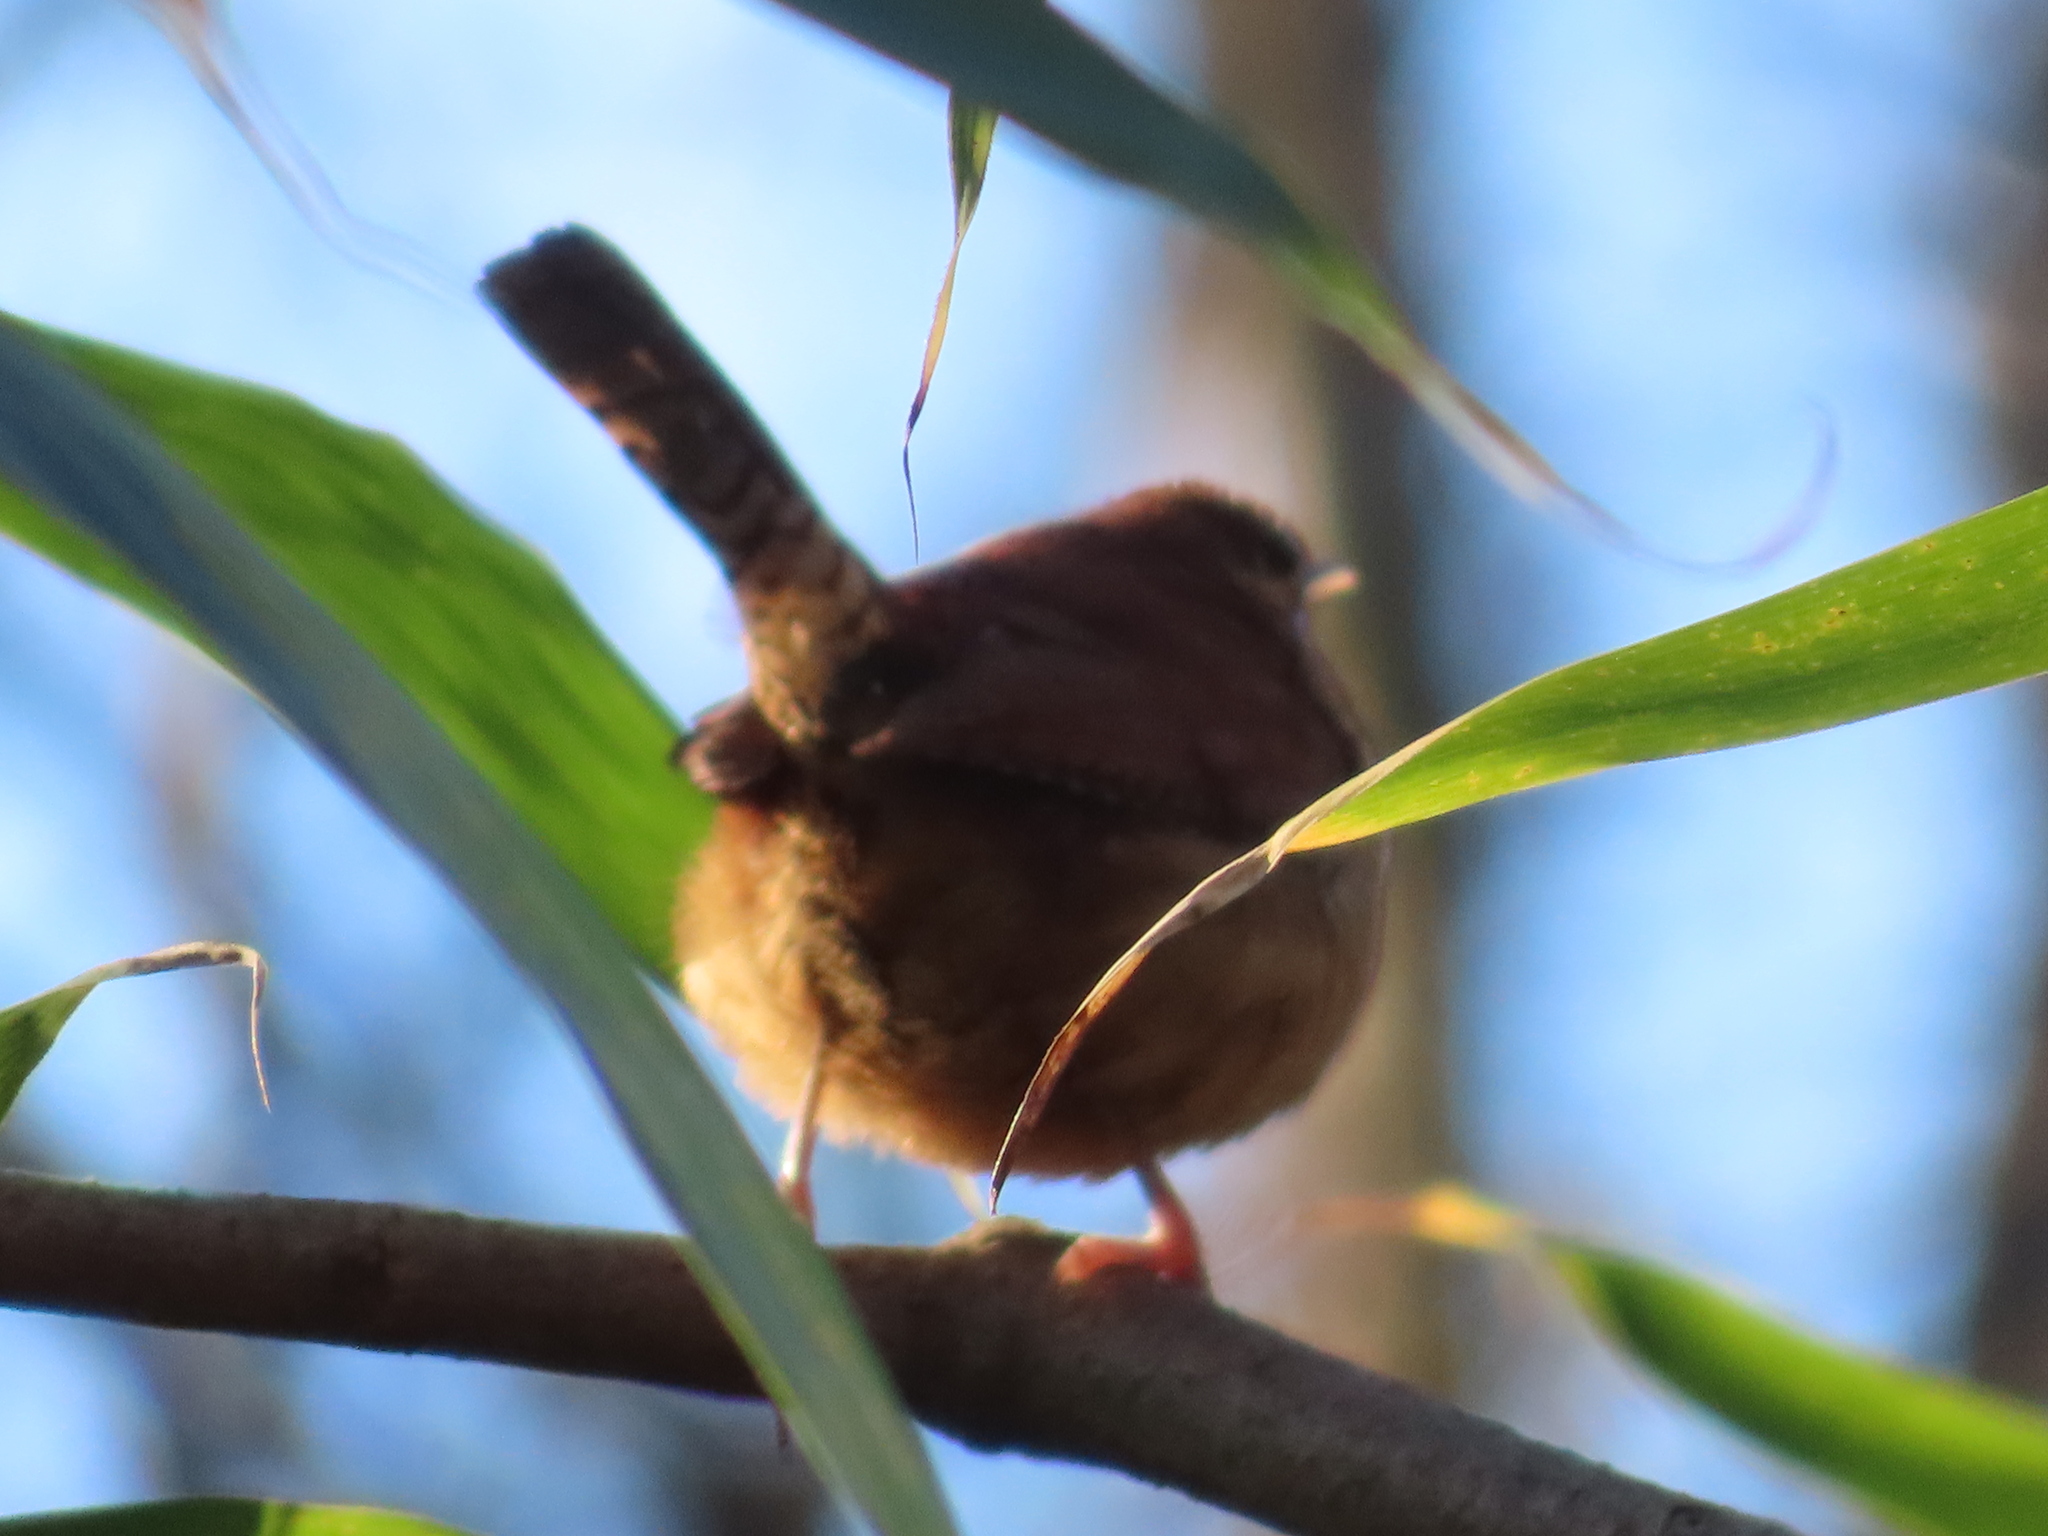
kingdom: Animalia
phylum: Chordata
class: Aves
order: Passeriformes
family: Troglodytidae
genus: Thryothorus
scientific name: Thryothorus ludovicianus
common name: Carolina wren
